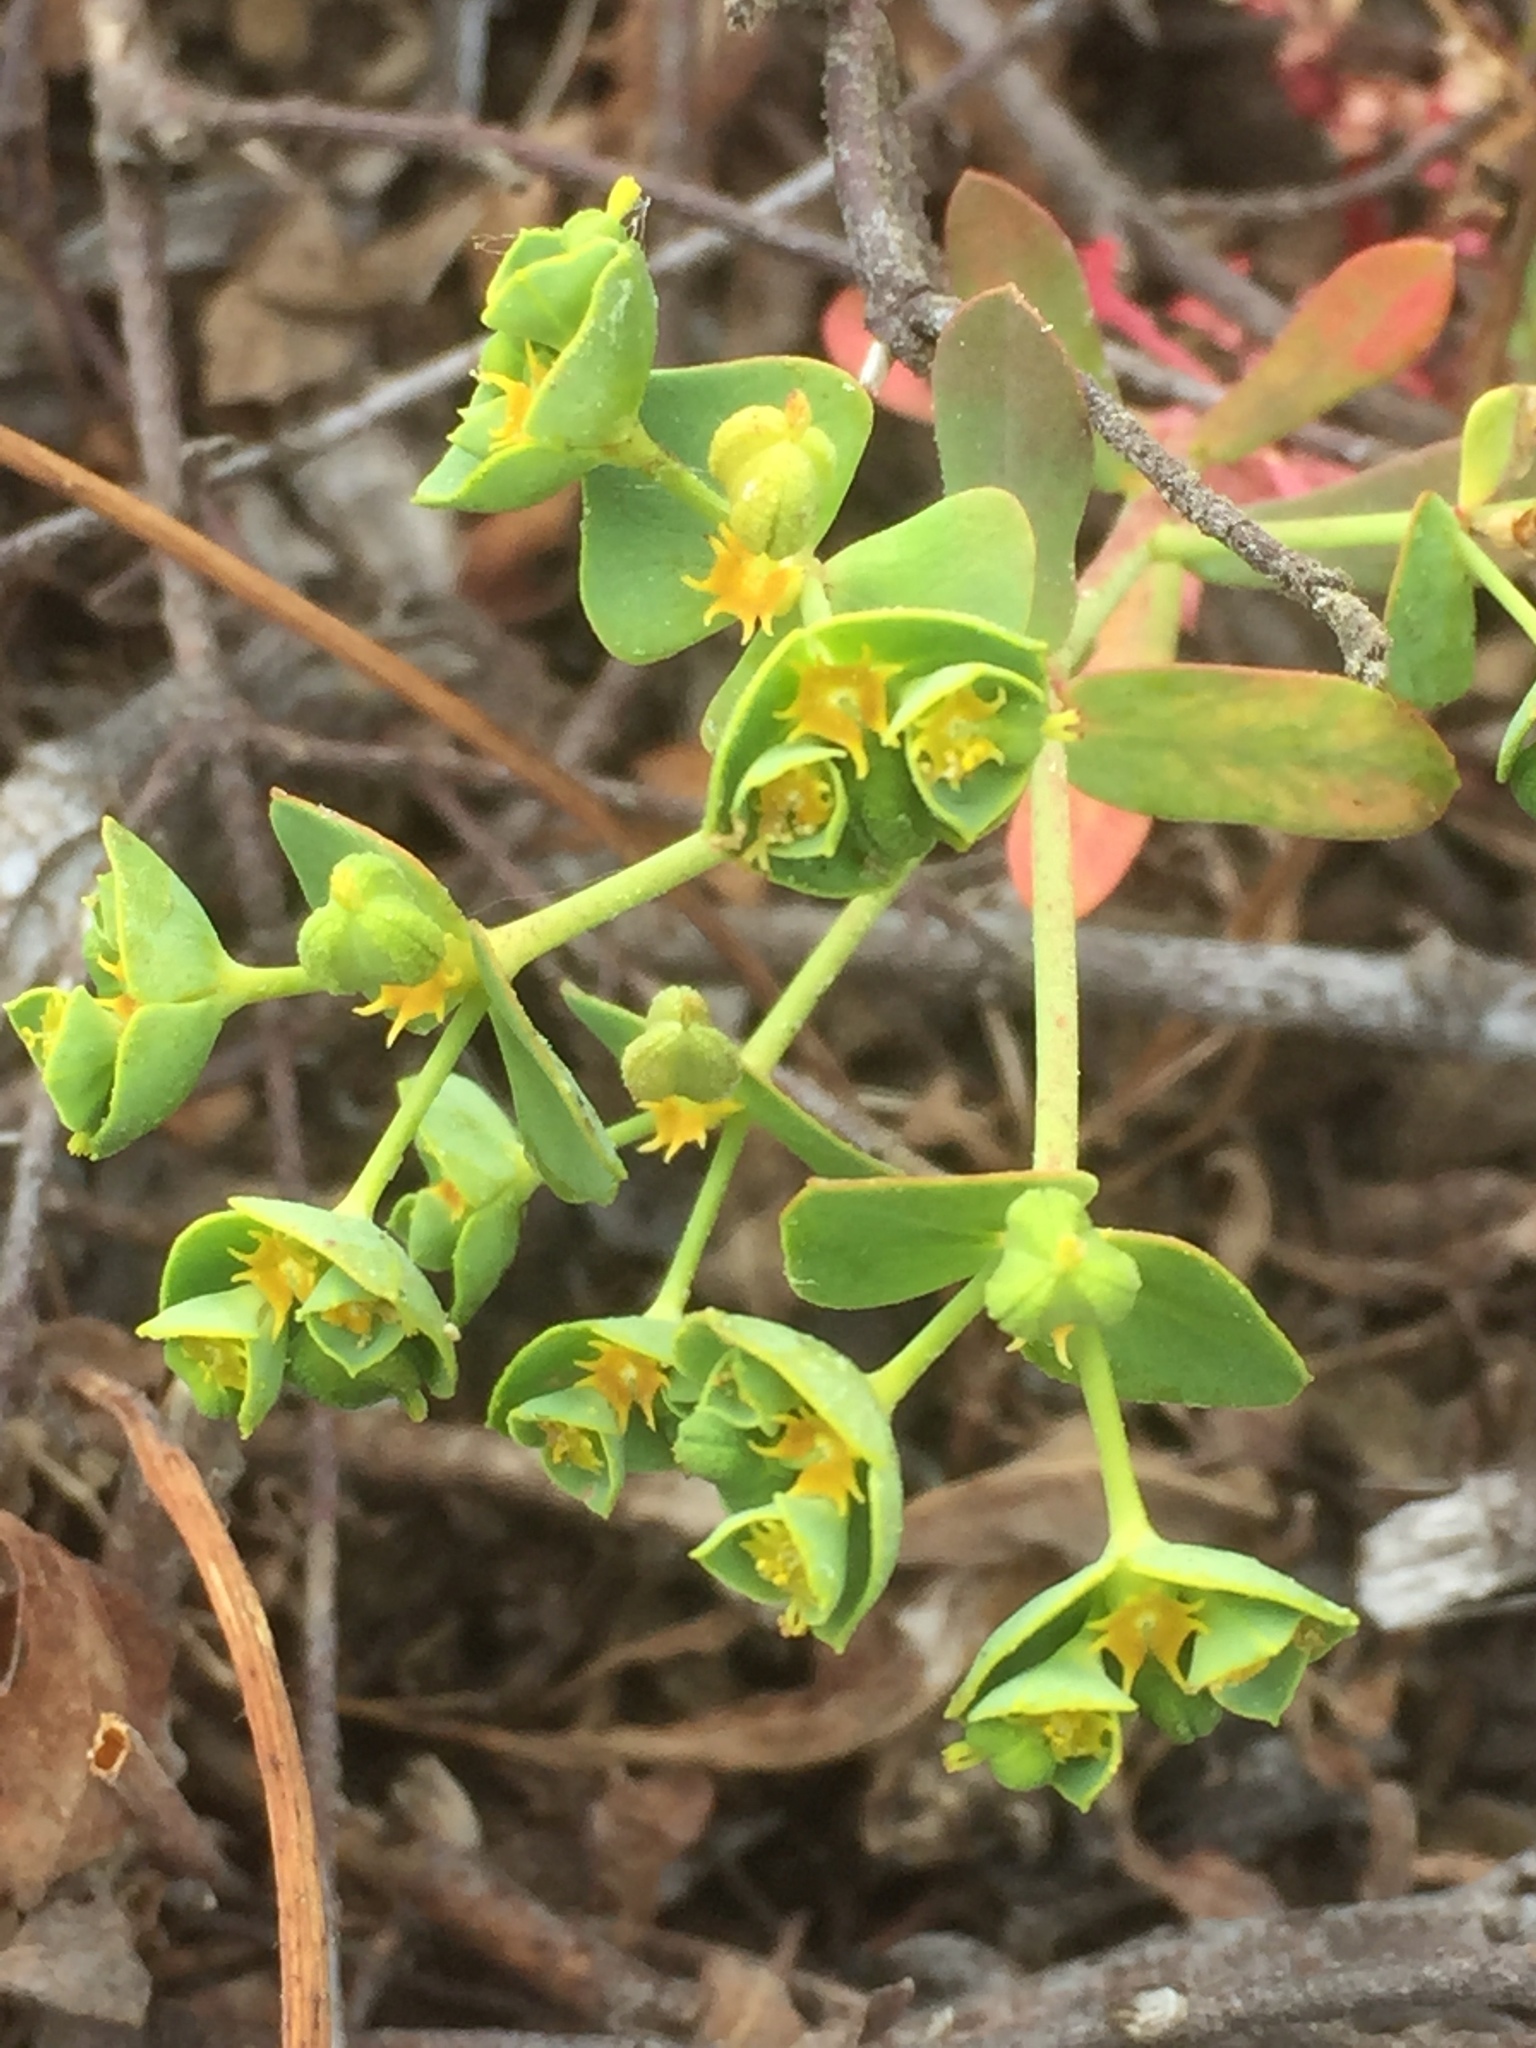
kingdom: Plantae
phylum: Tracheophyta
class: Magnoliopsida
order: Malpighiales
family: Euphorbiaceae
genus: Euphorbia
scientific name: Euphorbia portlandica
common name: Portland spurge
